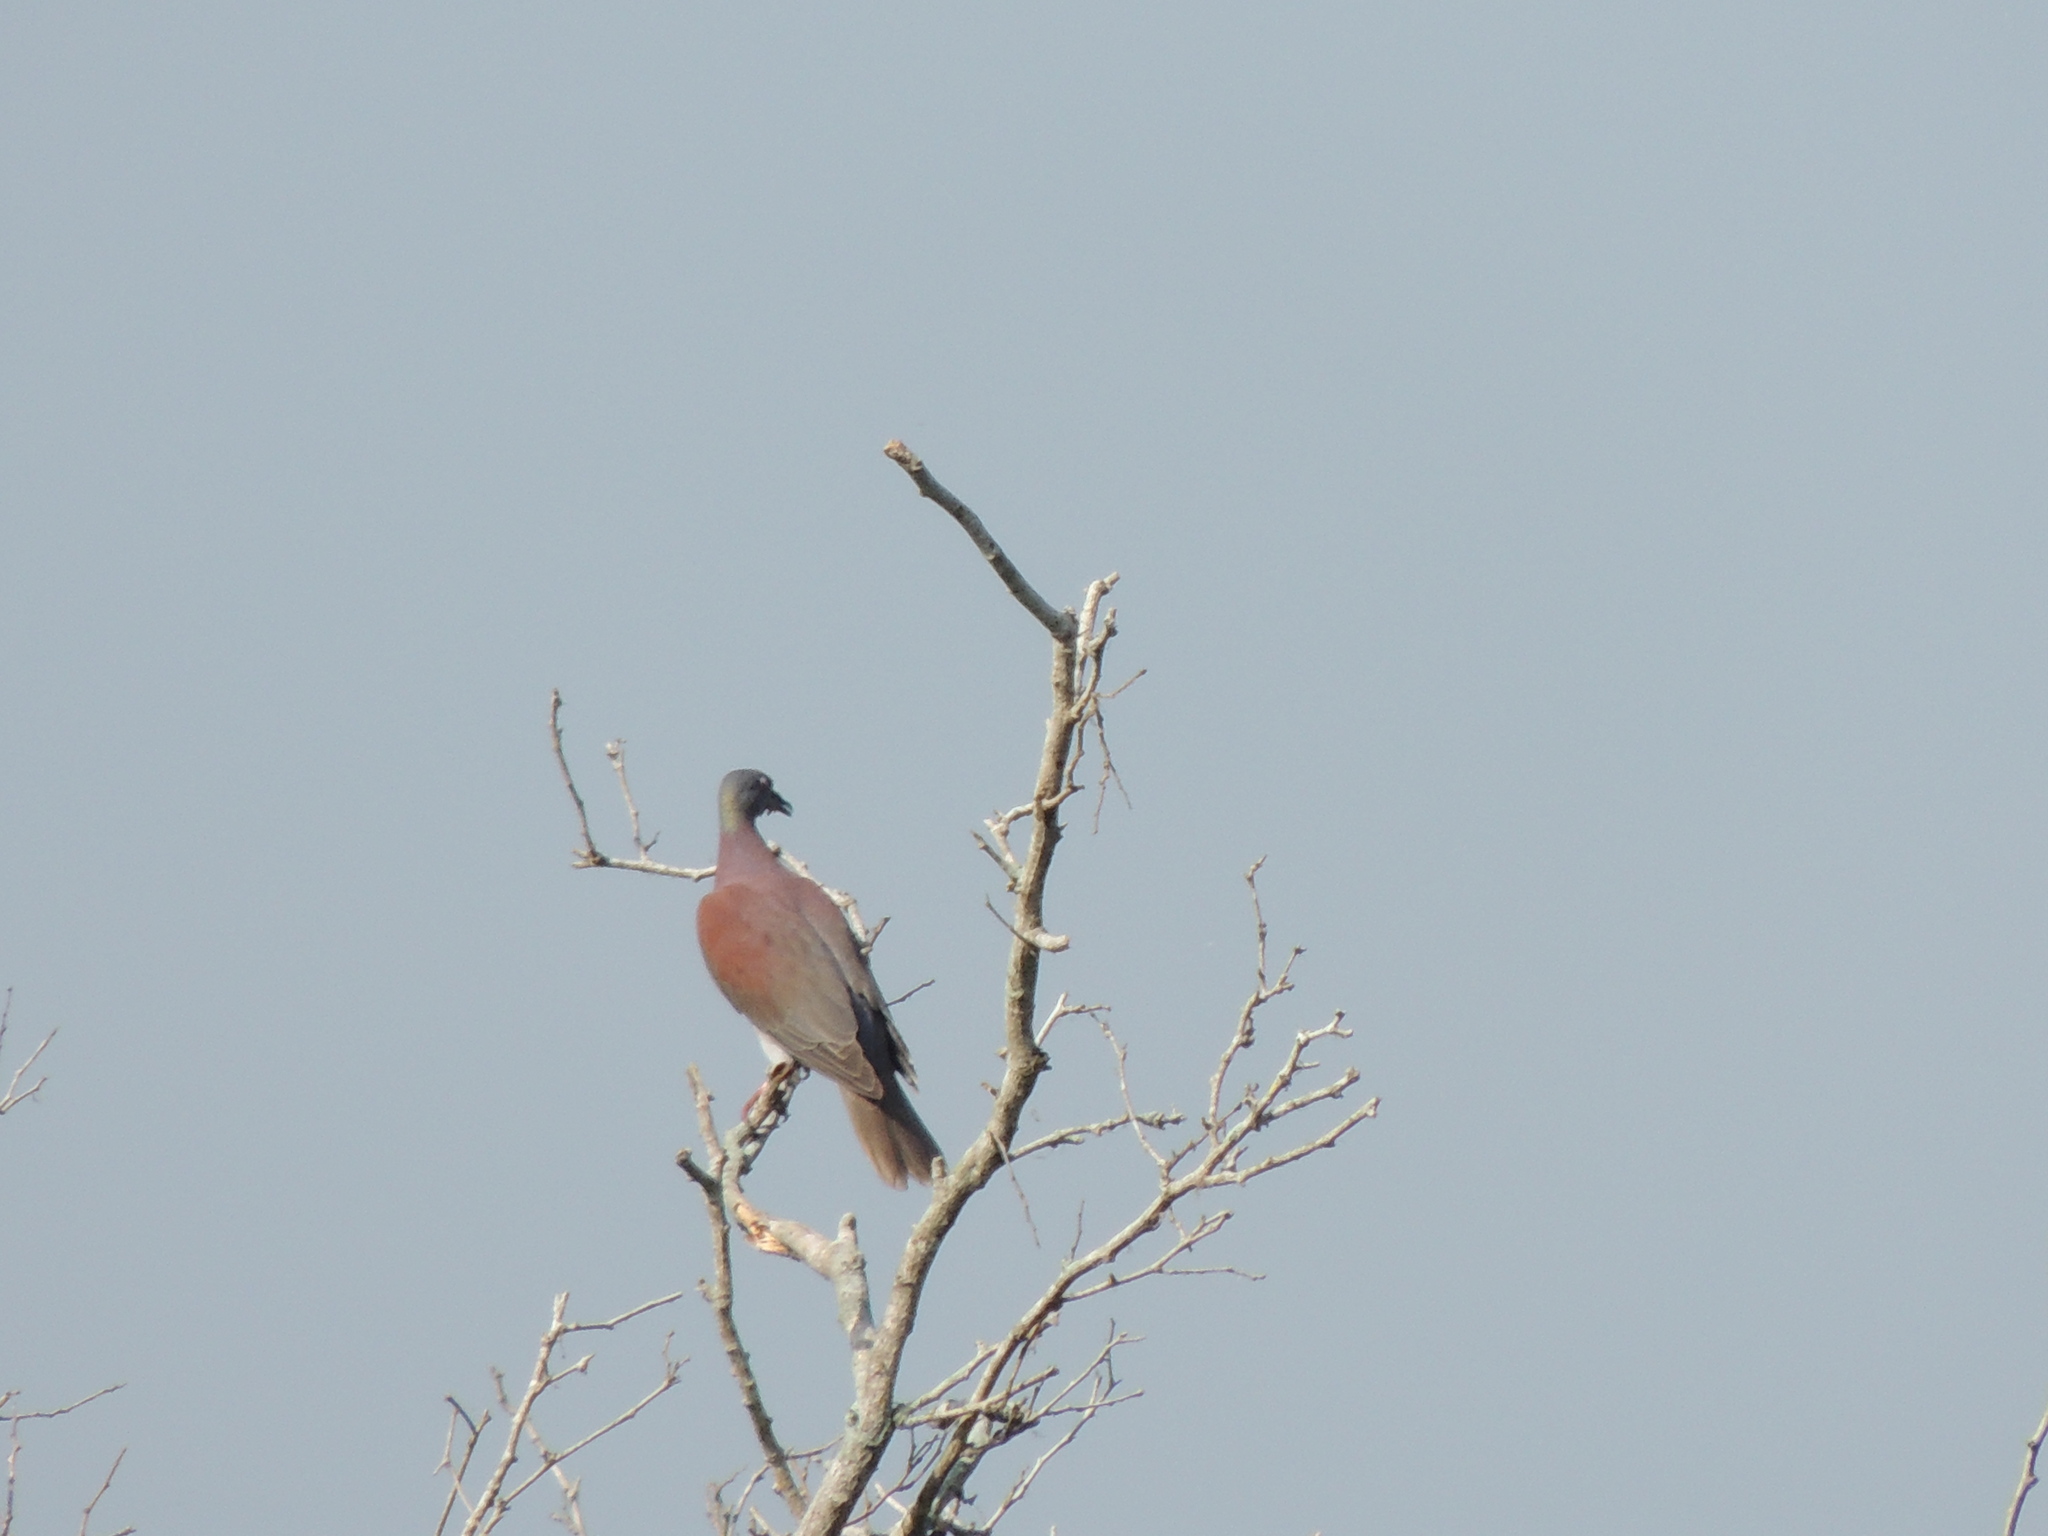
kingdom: Animalia
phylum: Chordata
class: Aves
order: Columbiformes
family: Columbidae
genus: Patagioenas
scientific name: Patagioenas cayennensis
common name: Pale-vented pigeon
